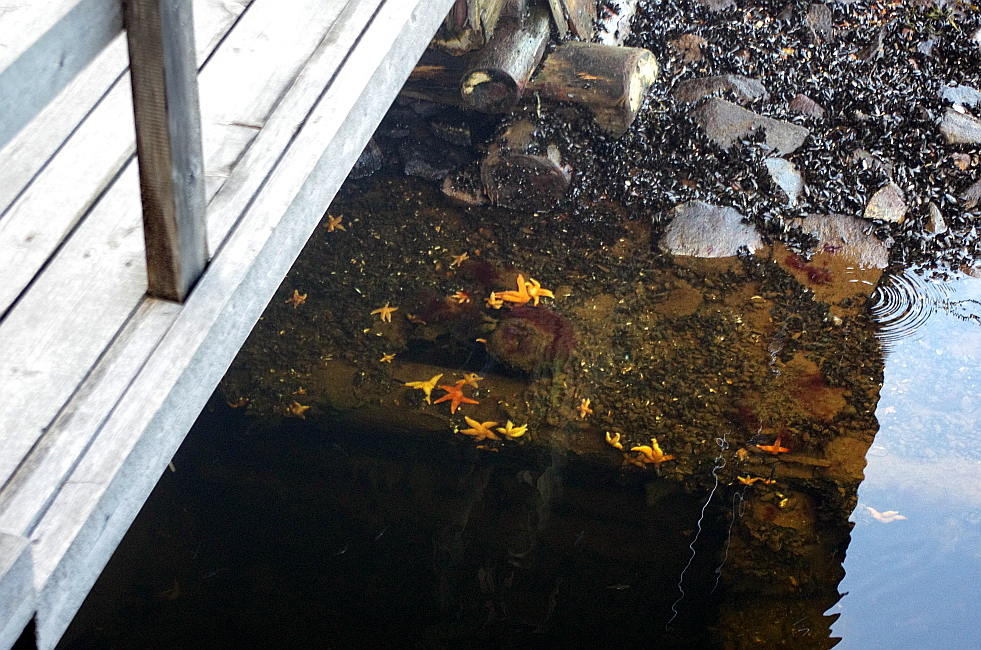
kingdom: Animalia
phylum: Echinodermata
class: Asteroidea
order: Forcipulatida
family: Asteriidae
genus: Asterias
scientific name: Asterias rubens
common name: Common starfish
